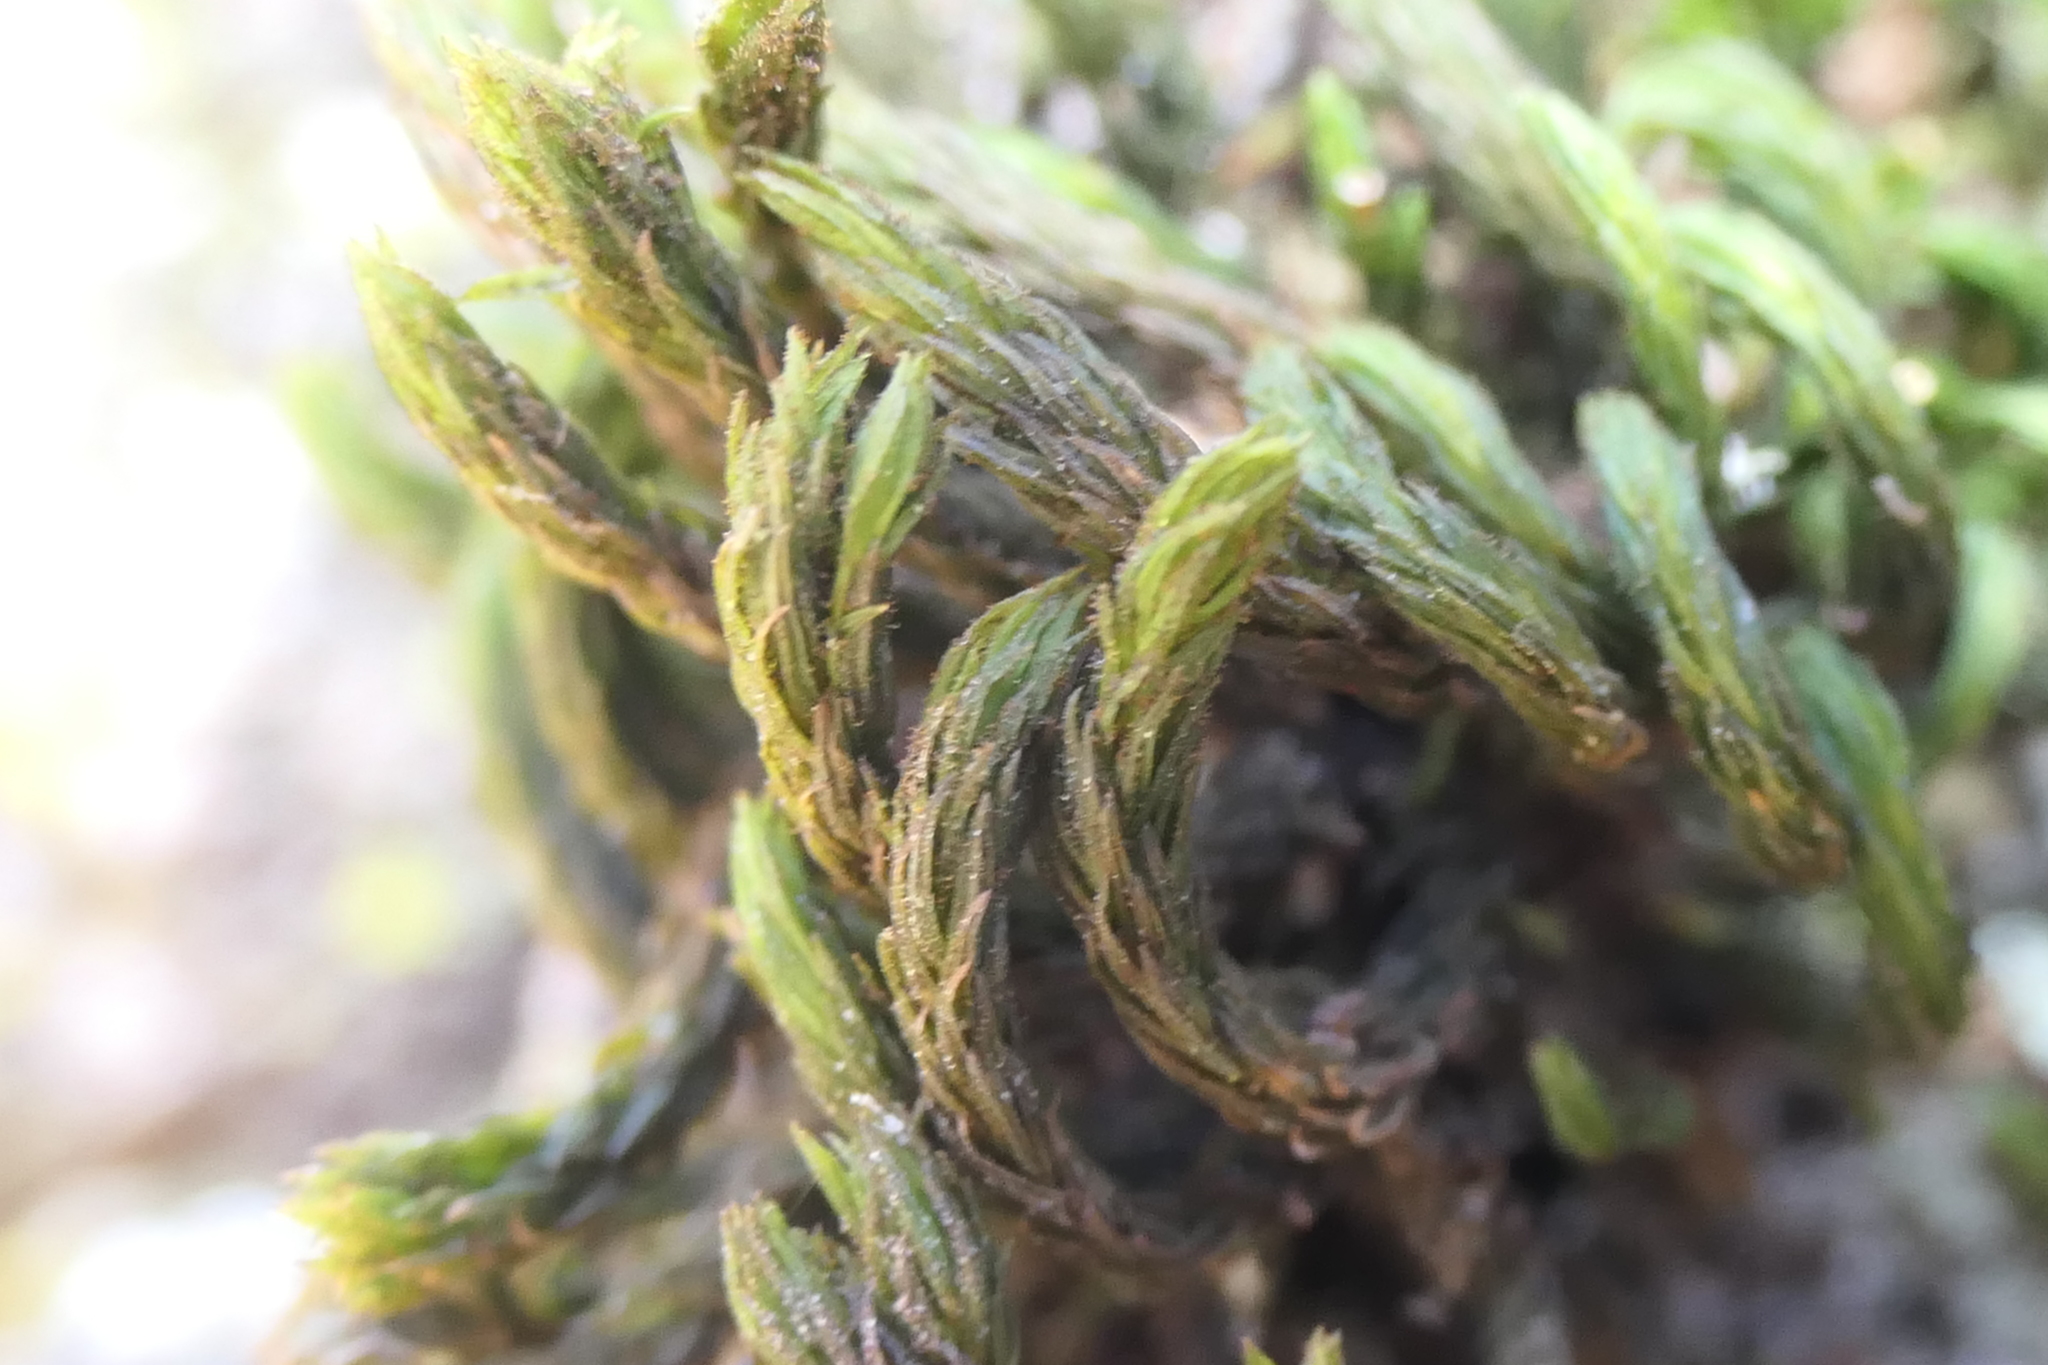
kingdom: Plantae
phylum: Bryophyta
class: Bryopsida
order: Orthotrichales
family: Orthotrichaceae
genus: Pulvigera
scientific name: Pulvigera lyellii
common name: Lyell's bristle-moss
